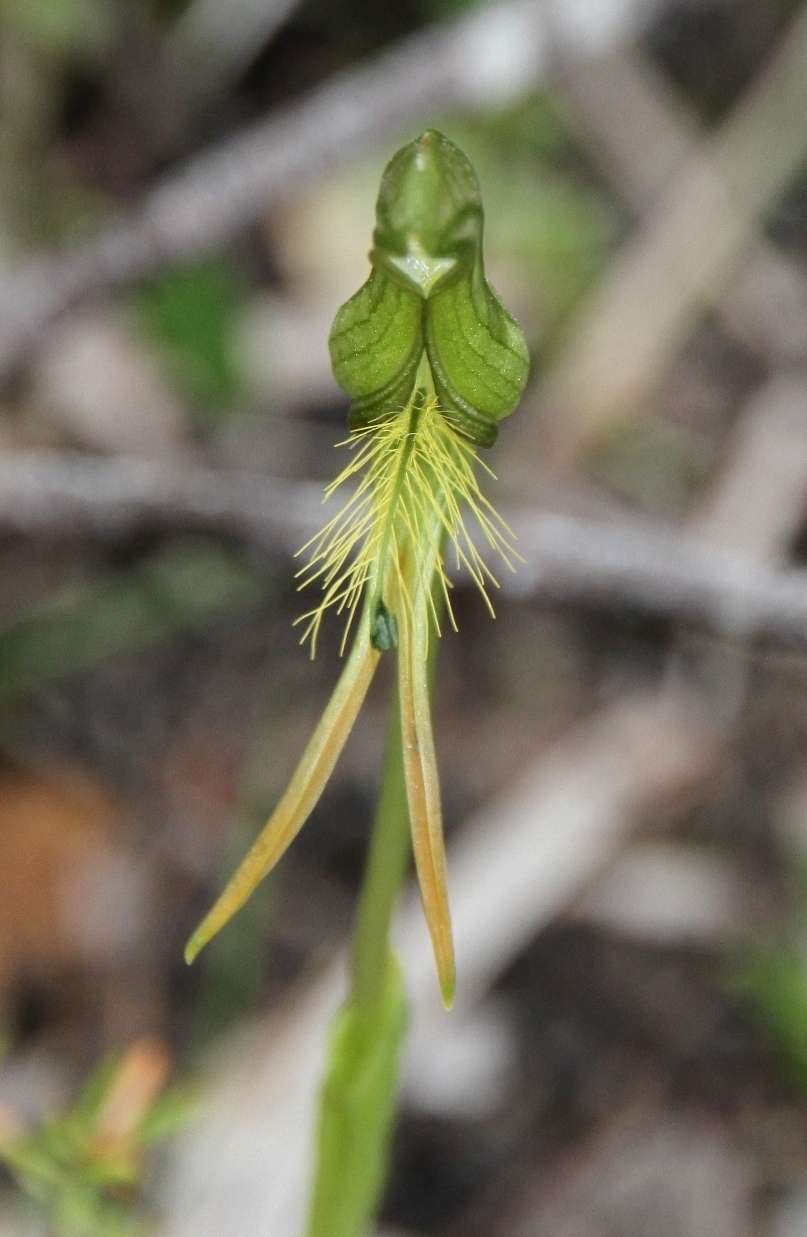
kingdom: Plantae
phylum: Tracheophyta
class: Liliopsida
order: Asparagales
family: Orchidaceae
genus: Pterostylis
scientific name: Pterostylis plumosa
